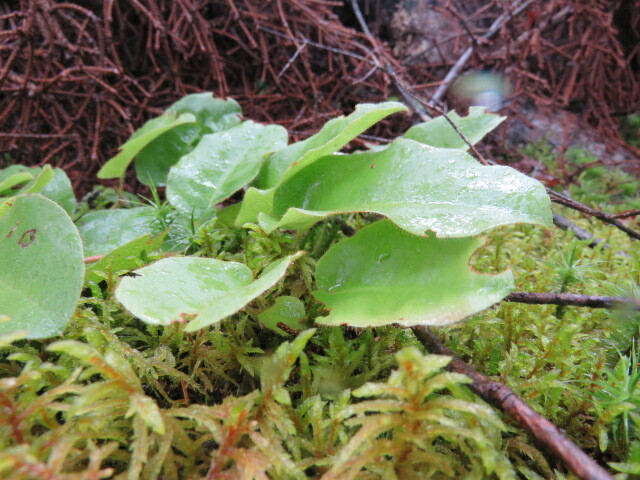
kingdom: Plantae
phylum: Tracheophyta
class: Magnoliopsida
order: Ericales
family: Ericaceae
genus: Epigaea
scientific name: Epigaea repens
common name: Gravelroot
